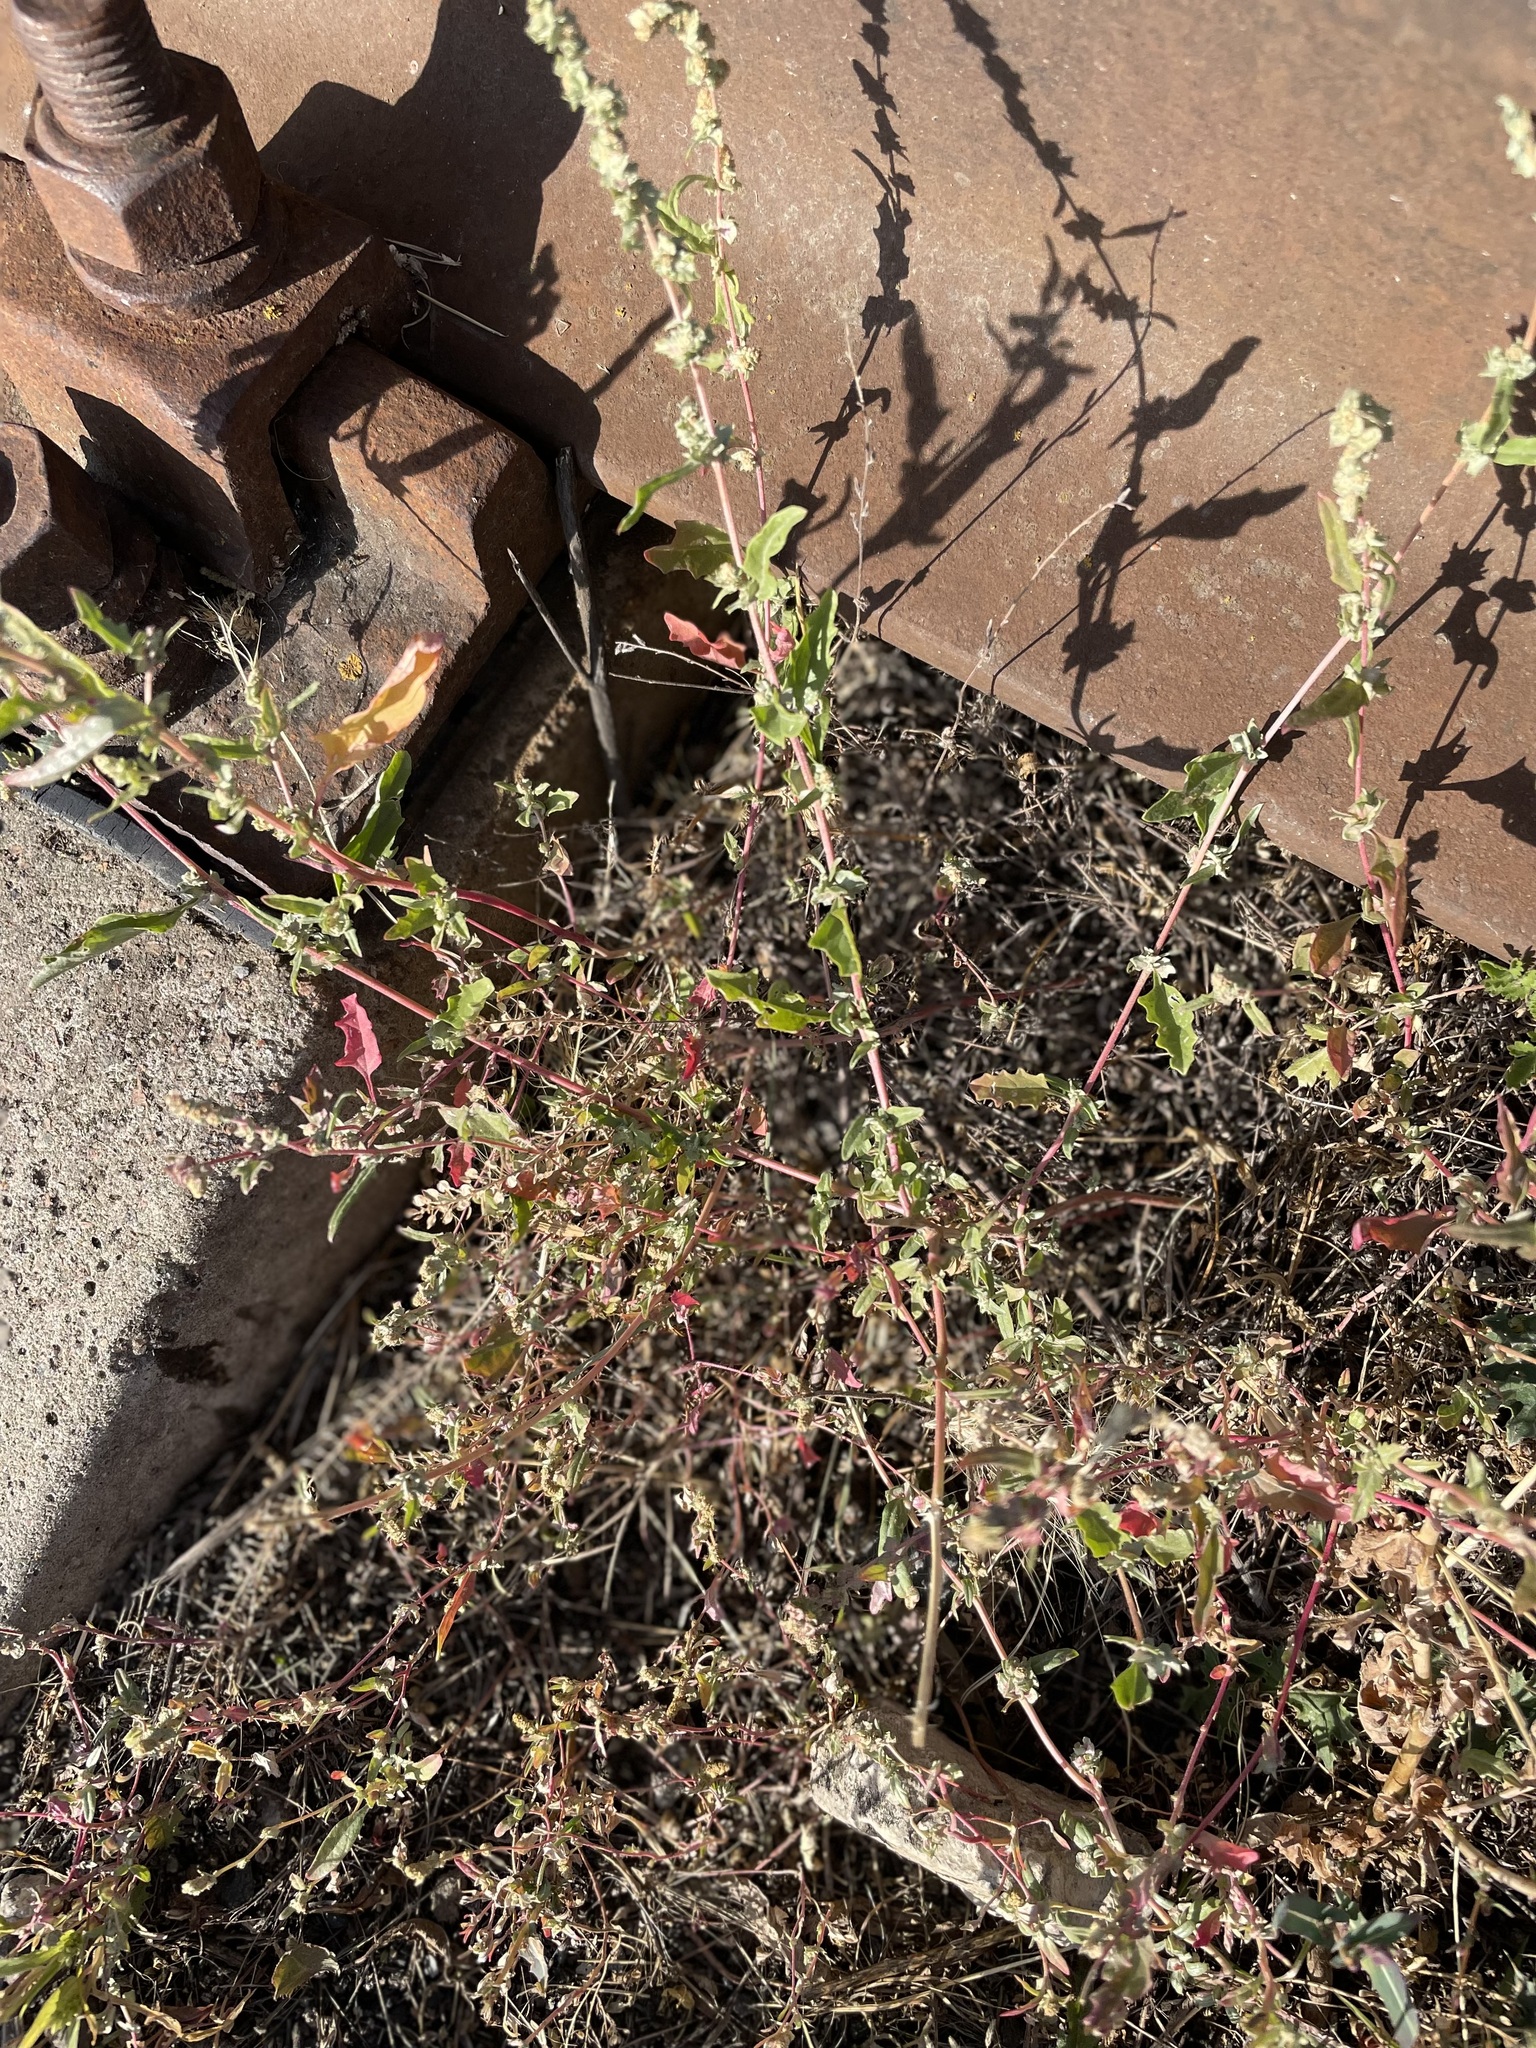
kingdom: Plantae
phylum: Tracheophyta
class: Magnoliopsida
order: Caryophyllales
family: Amaranthaceae
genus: Atriplex
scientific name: Atriplex tatarica
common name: Tatarian orache
